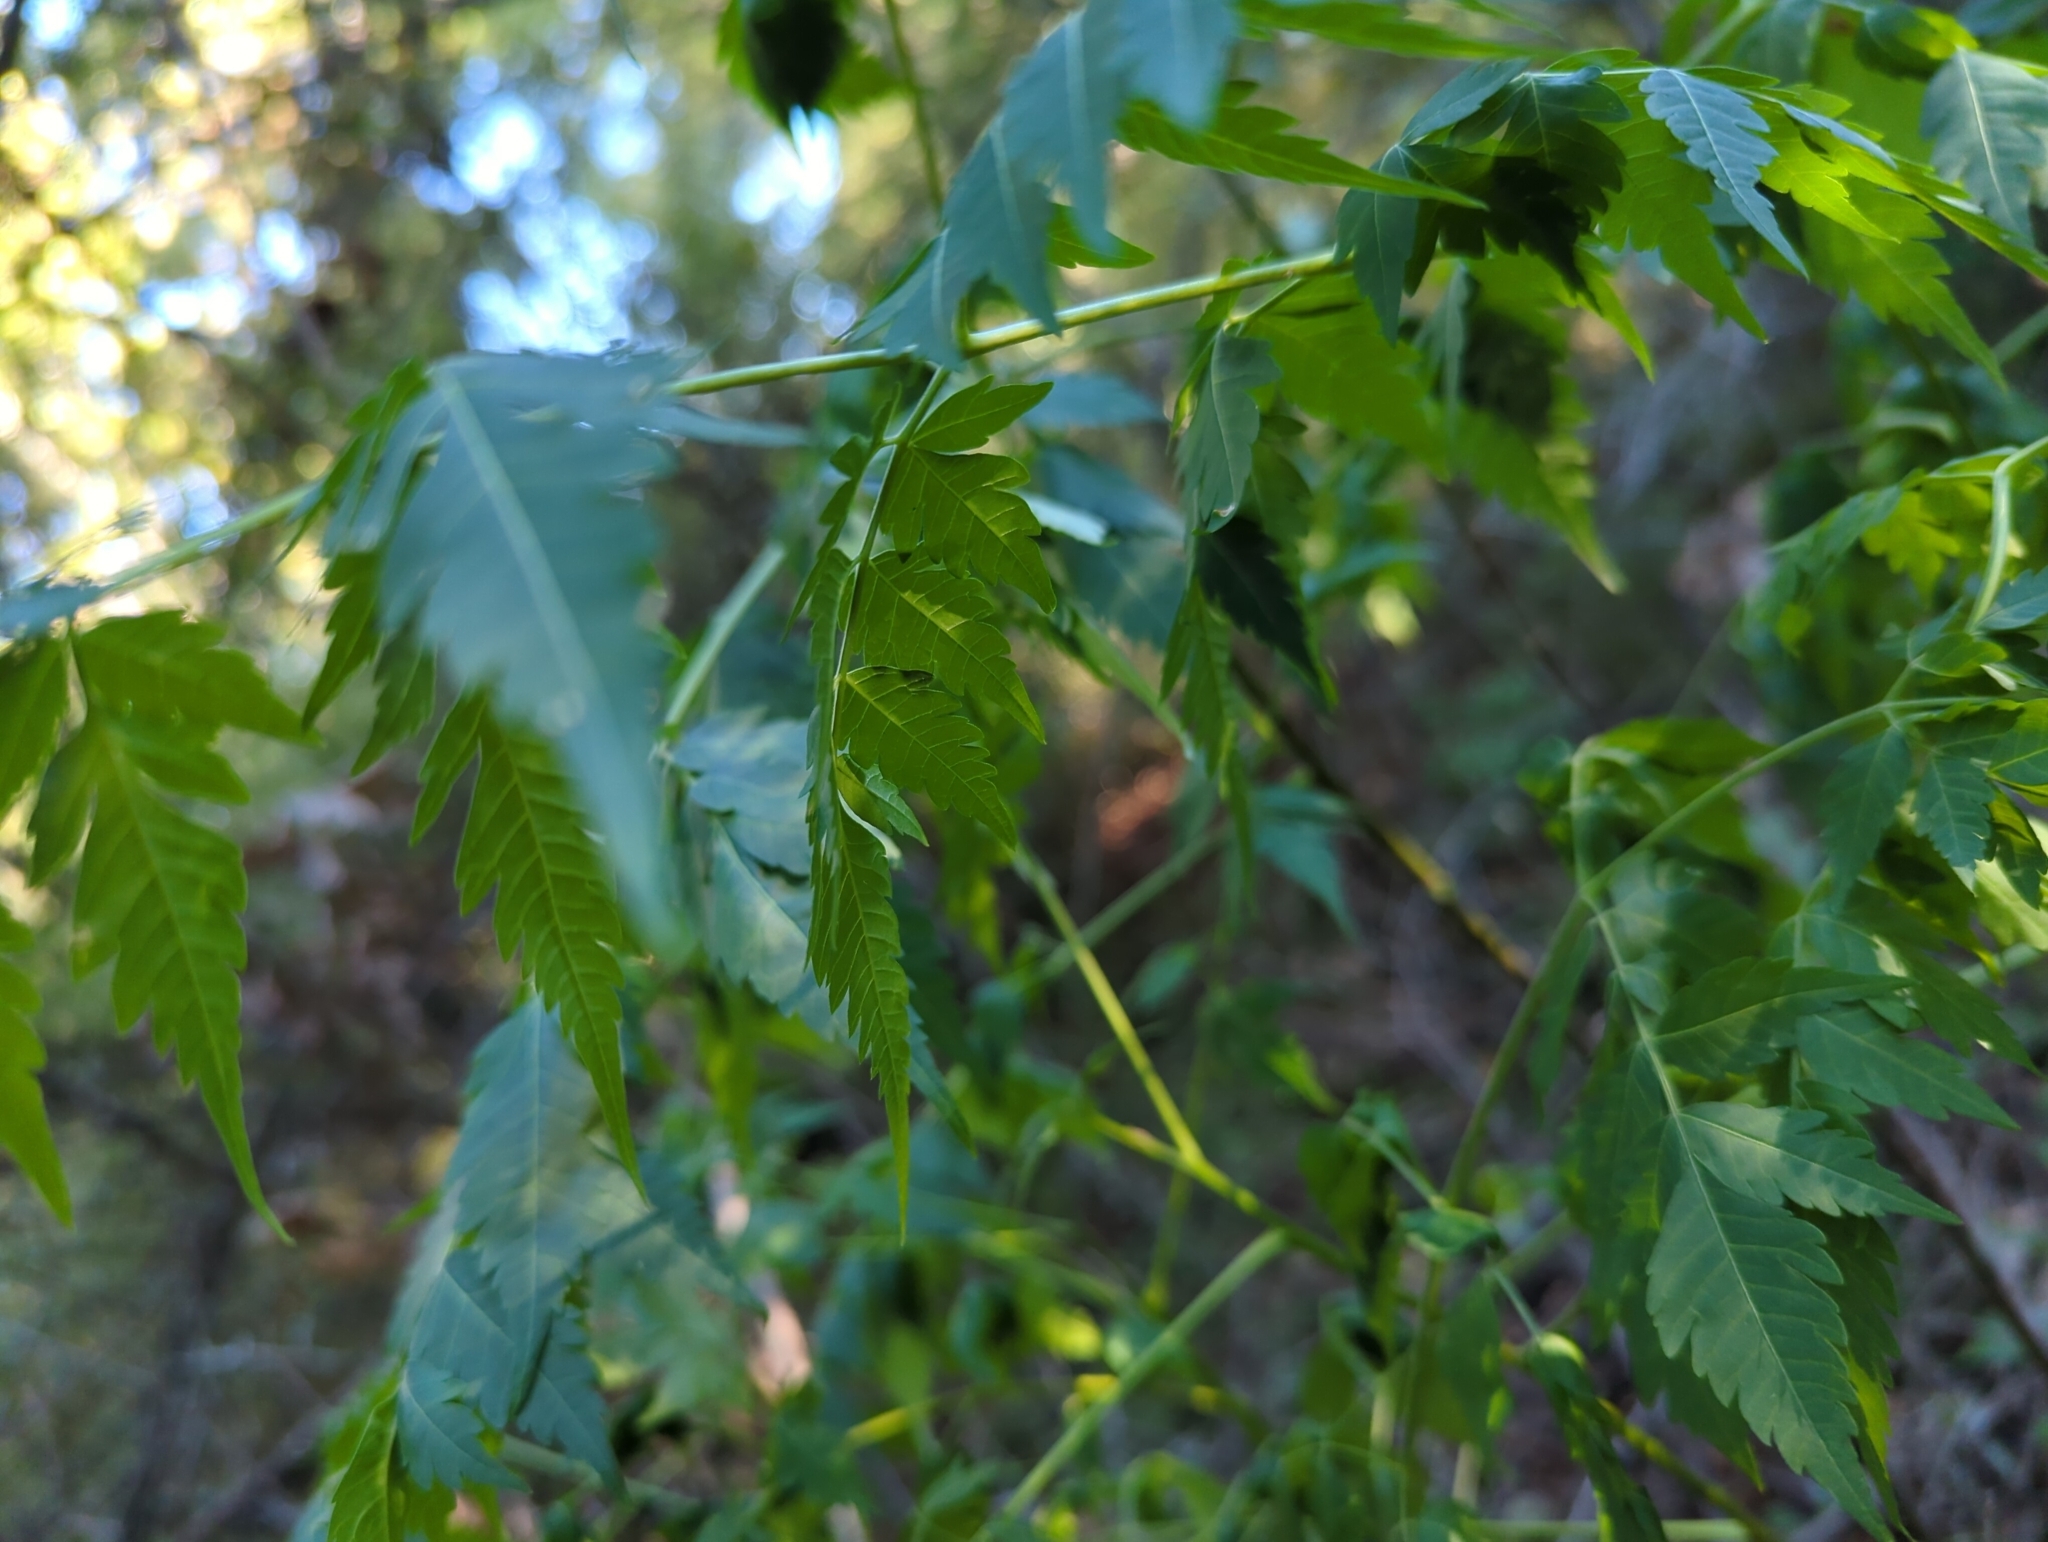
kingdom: Plantae
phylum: Tracheophyta
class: Magnoliopsida
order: Sapindales
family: Meliaceae
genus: Melia
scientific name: Melia azedarach
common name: Chinaberrytree
